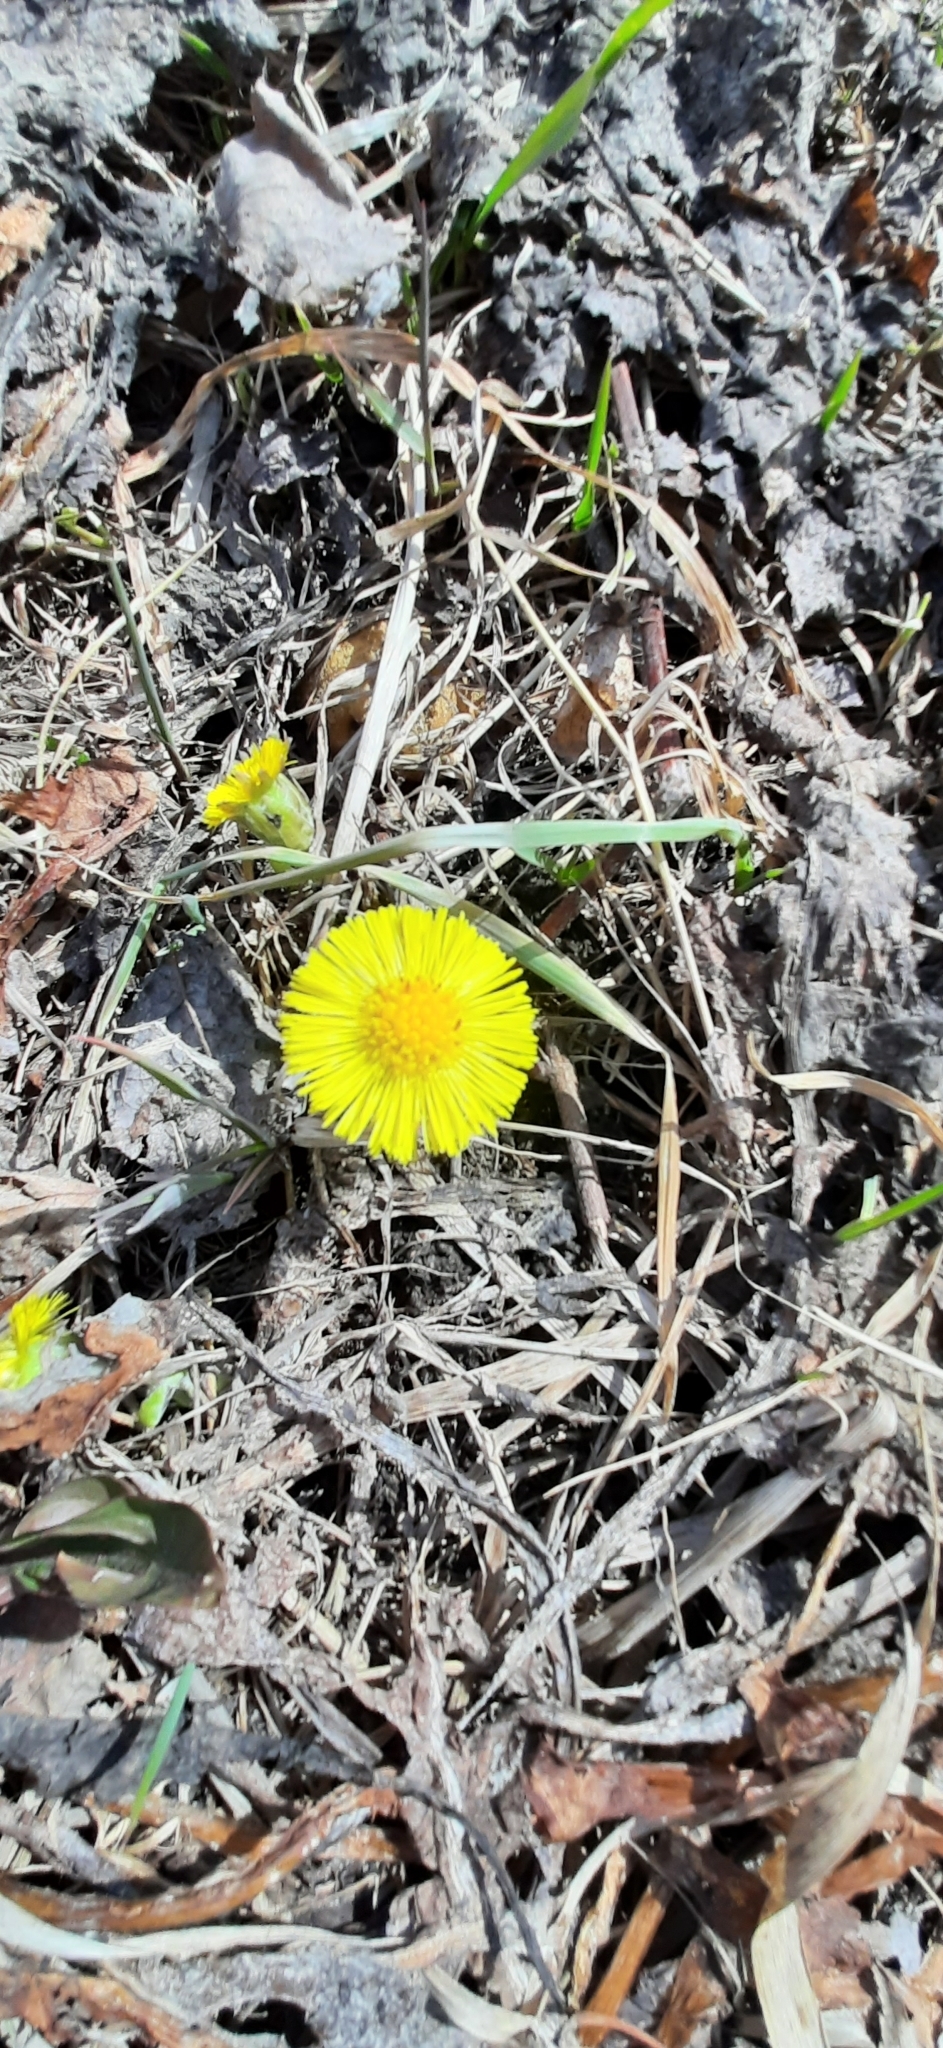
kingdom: Plantae
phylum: Tracheophyta
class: Magnoliopsida
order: Asterales
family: Asteraceae
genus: Tussilago
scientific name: Tussilago farfara
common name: Coltsfoot
